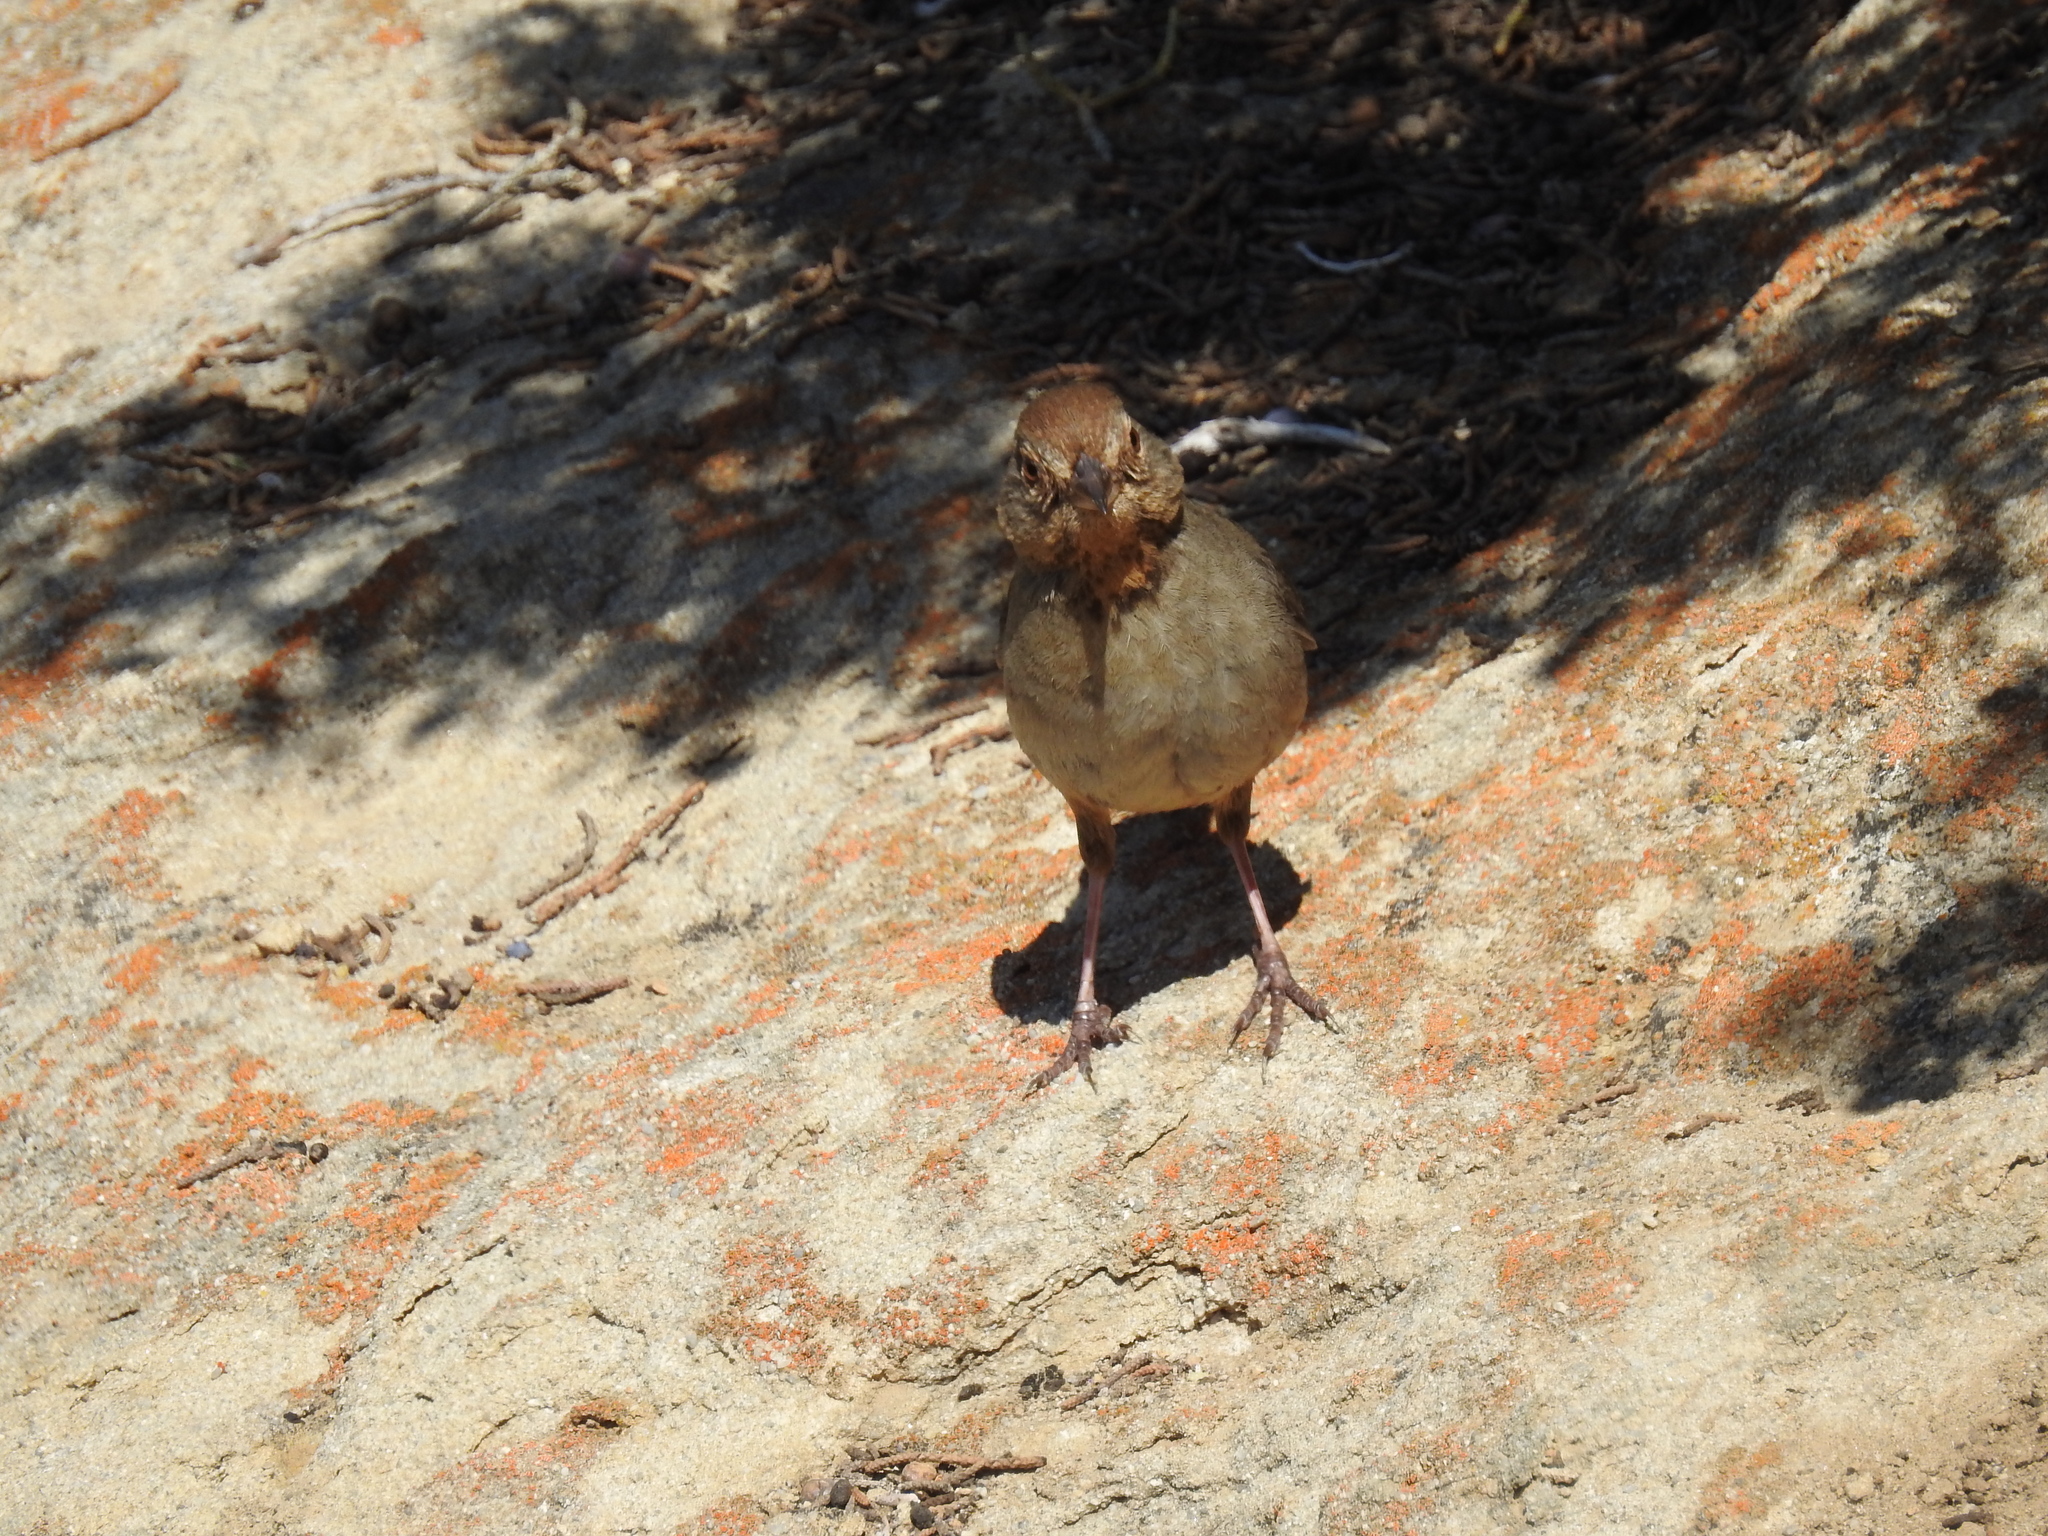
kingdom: Animalia
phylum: Chordata
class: Aves
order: Passeriformes
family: Passerellidae
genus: Melozone
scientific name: Melozone crissalis
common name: California towhee
